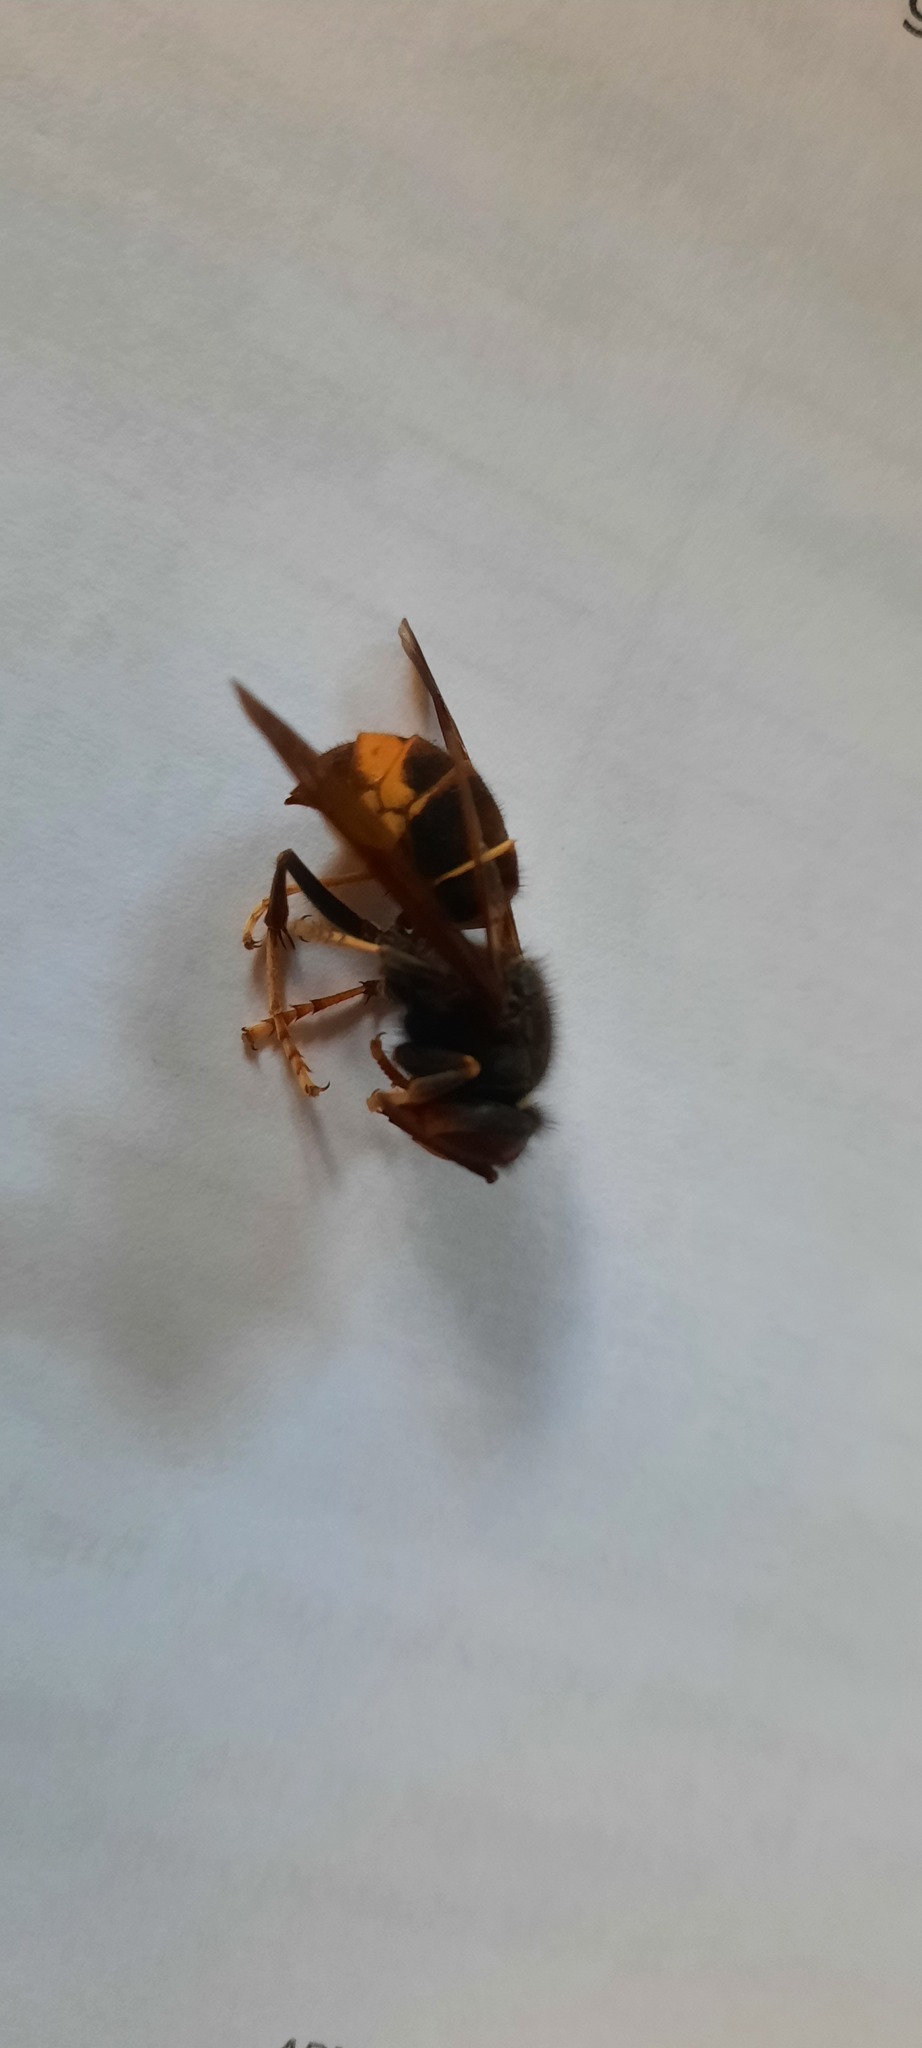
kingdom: Animalia
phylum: Arthropoda
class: Insecta
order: Hymenoptera
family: Vespidae
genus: Vespa
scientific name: Vespa velutina
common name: Asian hornet
